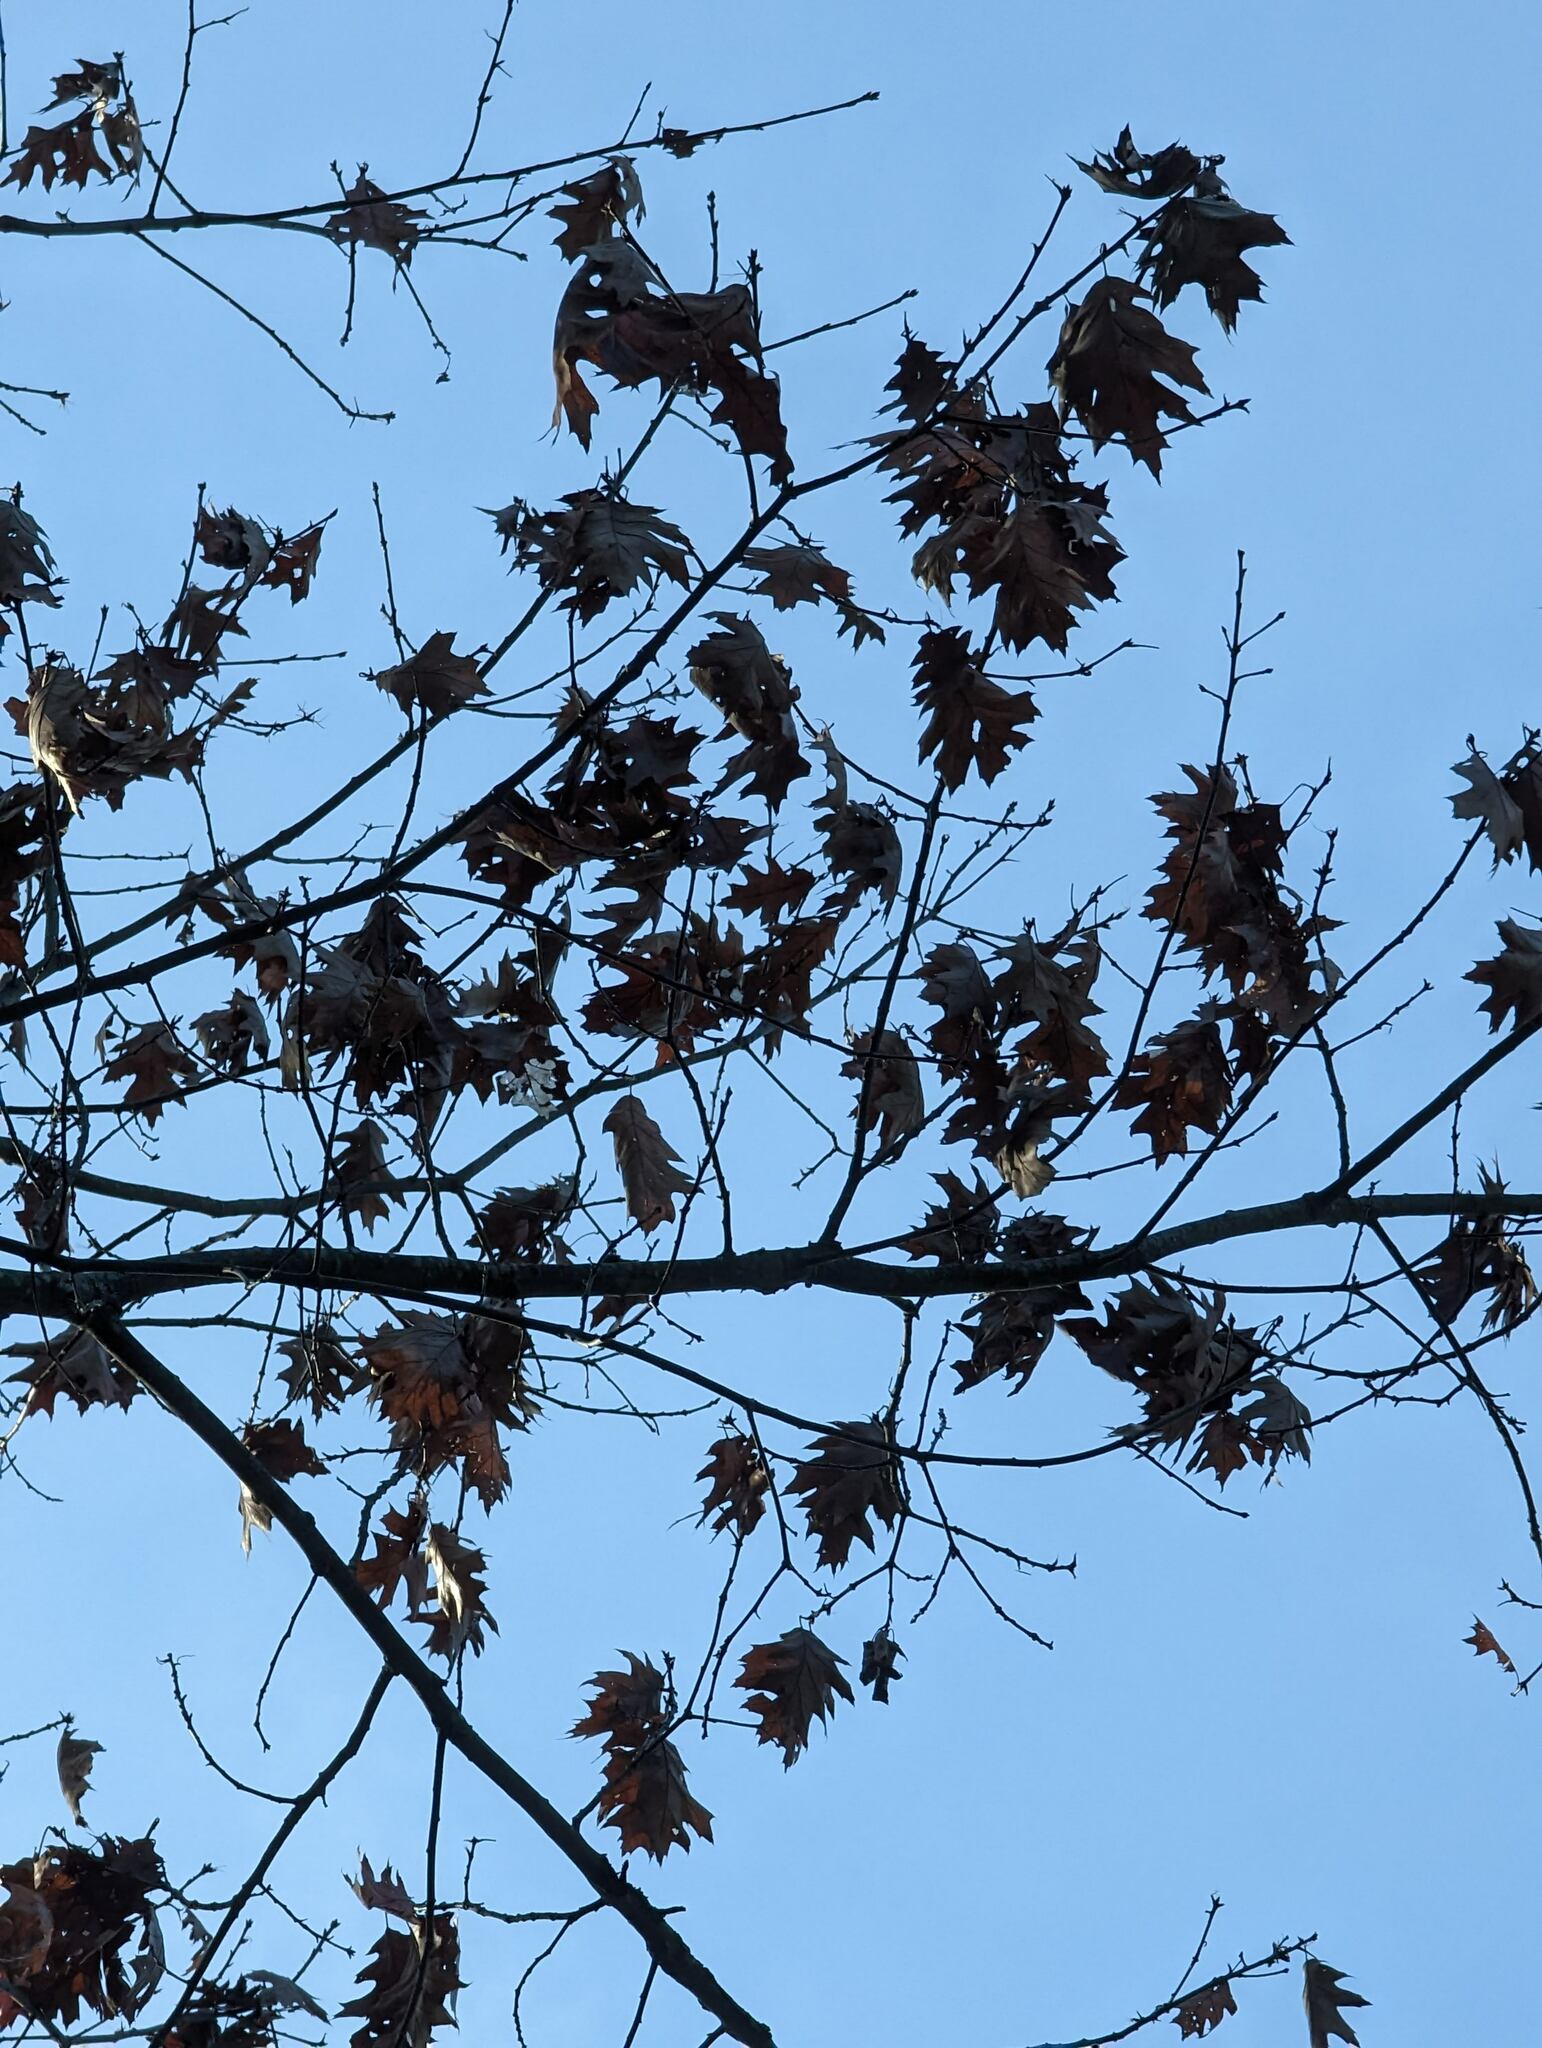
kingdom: Plantae
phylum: Tracheophyta
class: Magnoliopsida
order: Fagales
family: Fagaceae
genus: Quercus
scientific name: Quercus rubra
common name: Red oak
